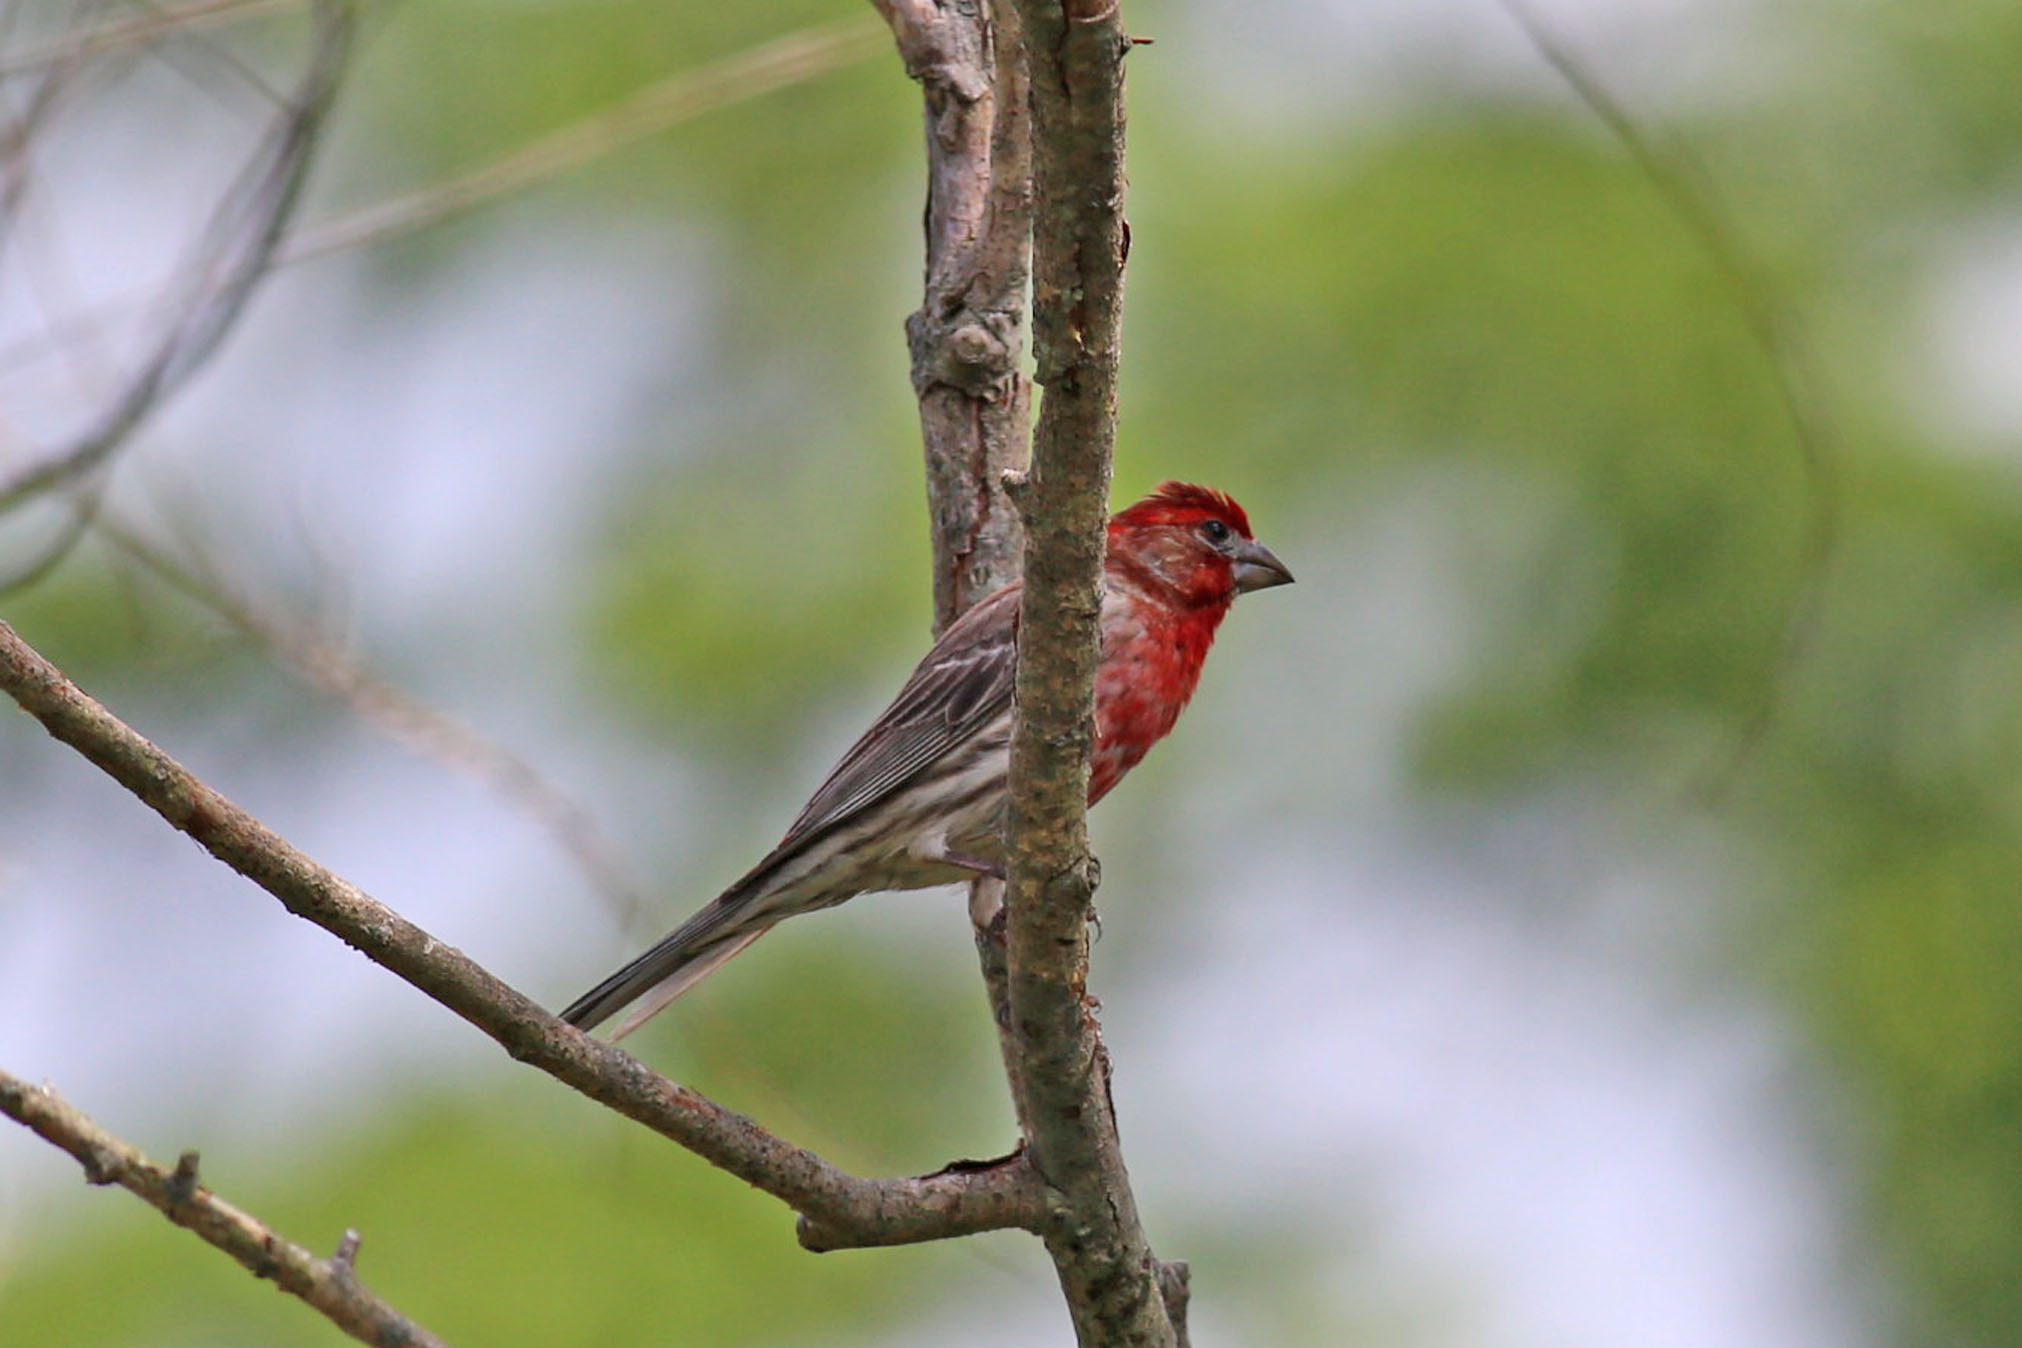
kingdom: Animalia
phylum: Chordata
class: Aves
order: Passeriformes
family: Fringillidae
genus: Haemorhous
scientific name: Haemorhous mexicanus
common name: House finch
